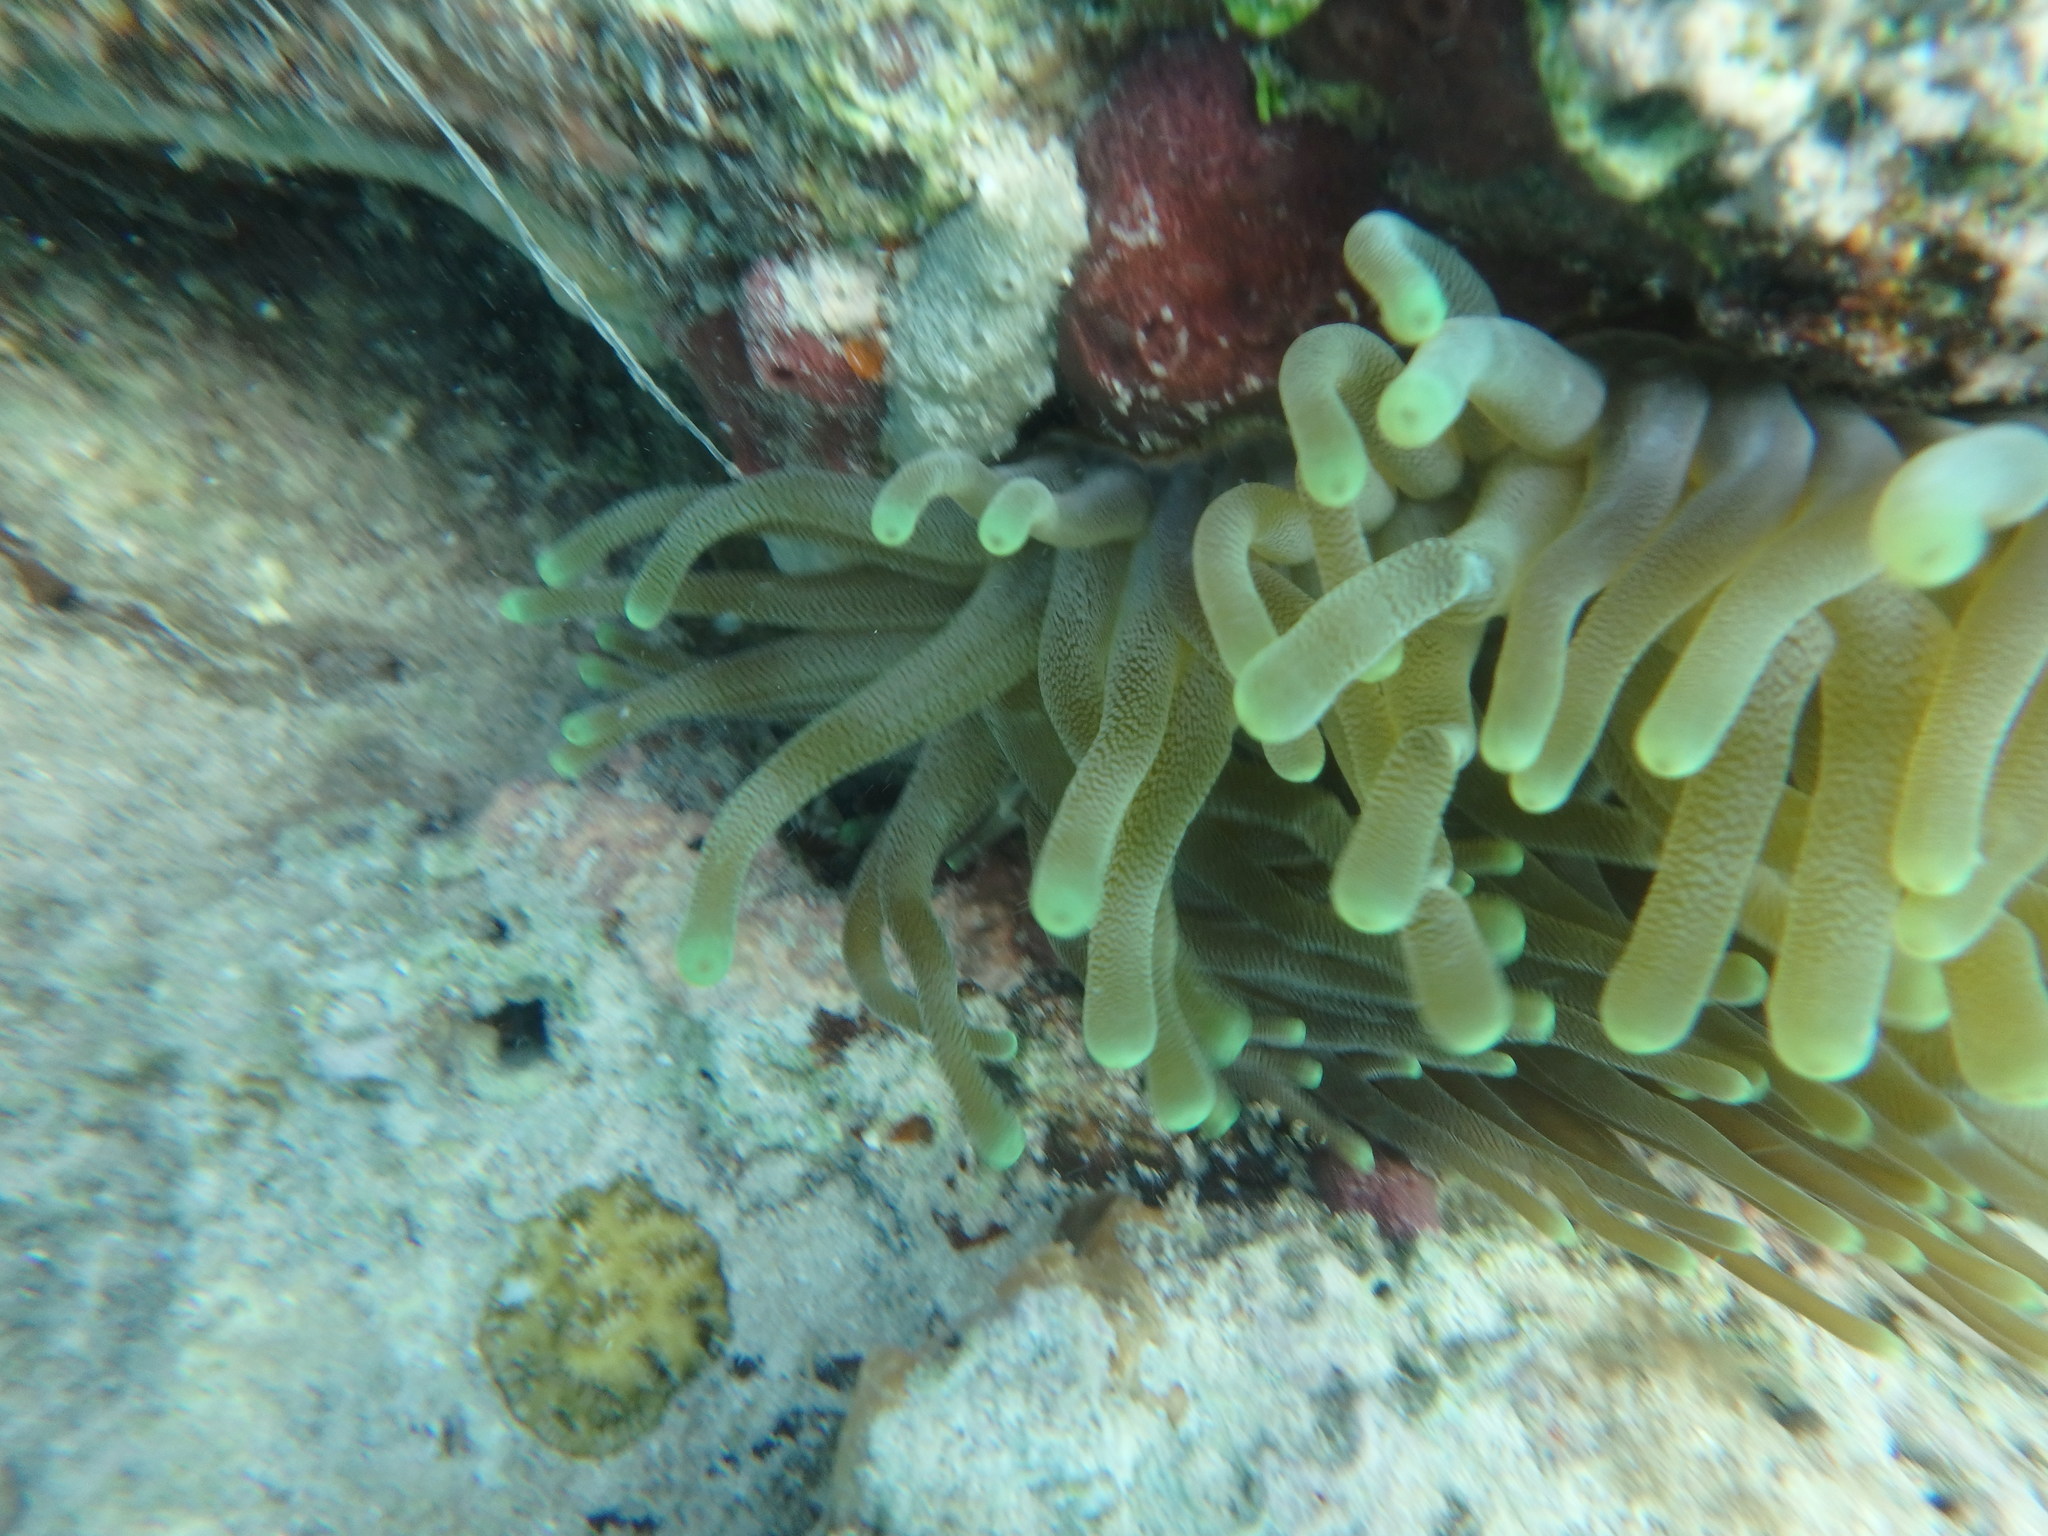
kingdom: Animalia
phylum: Cnidaria
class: Anthozoa
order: Actiniaria
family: Actiniidae
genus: Condylactis
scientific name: Condylactis gigantea
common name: Giant caribbean anemone
